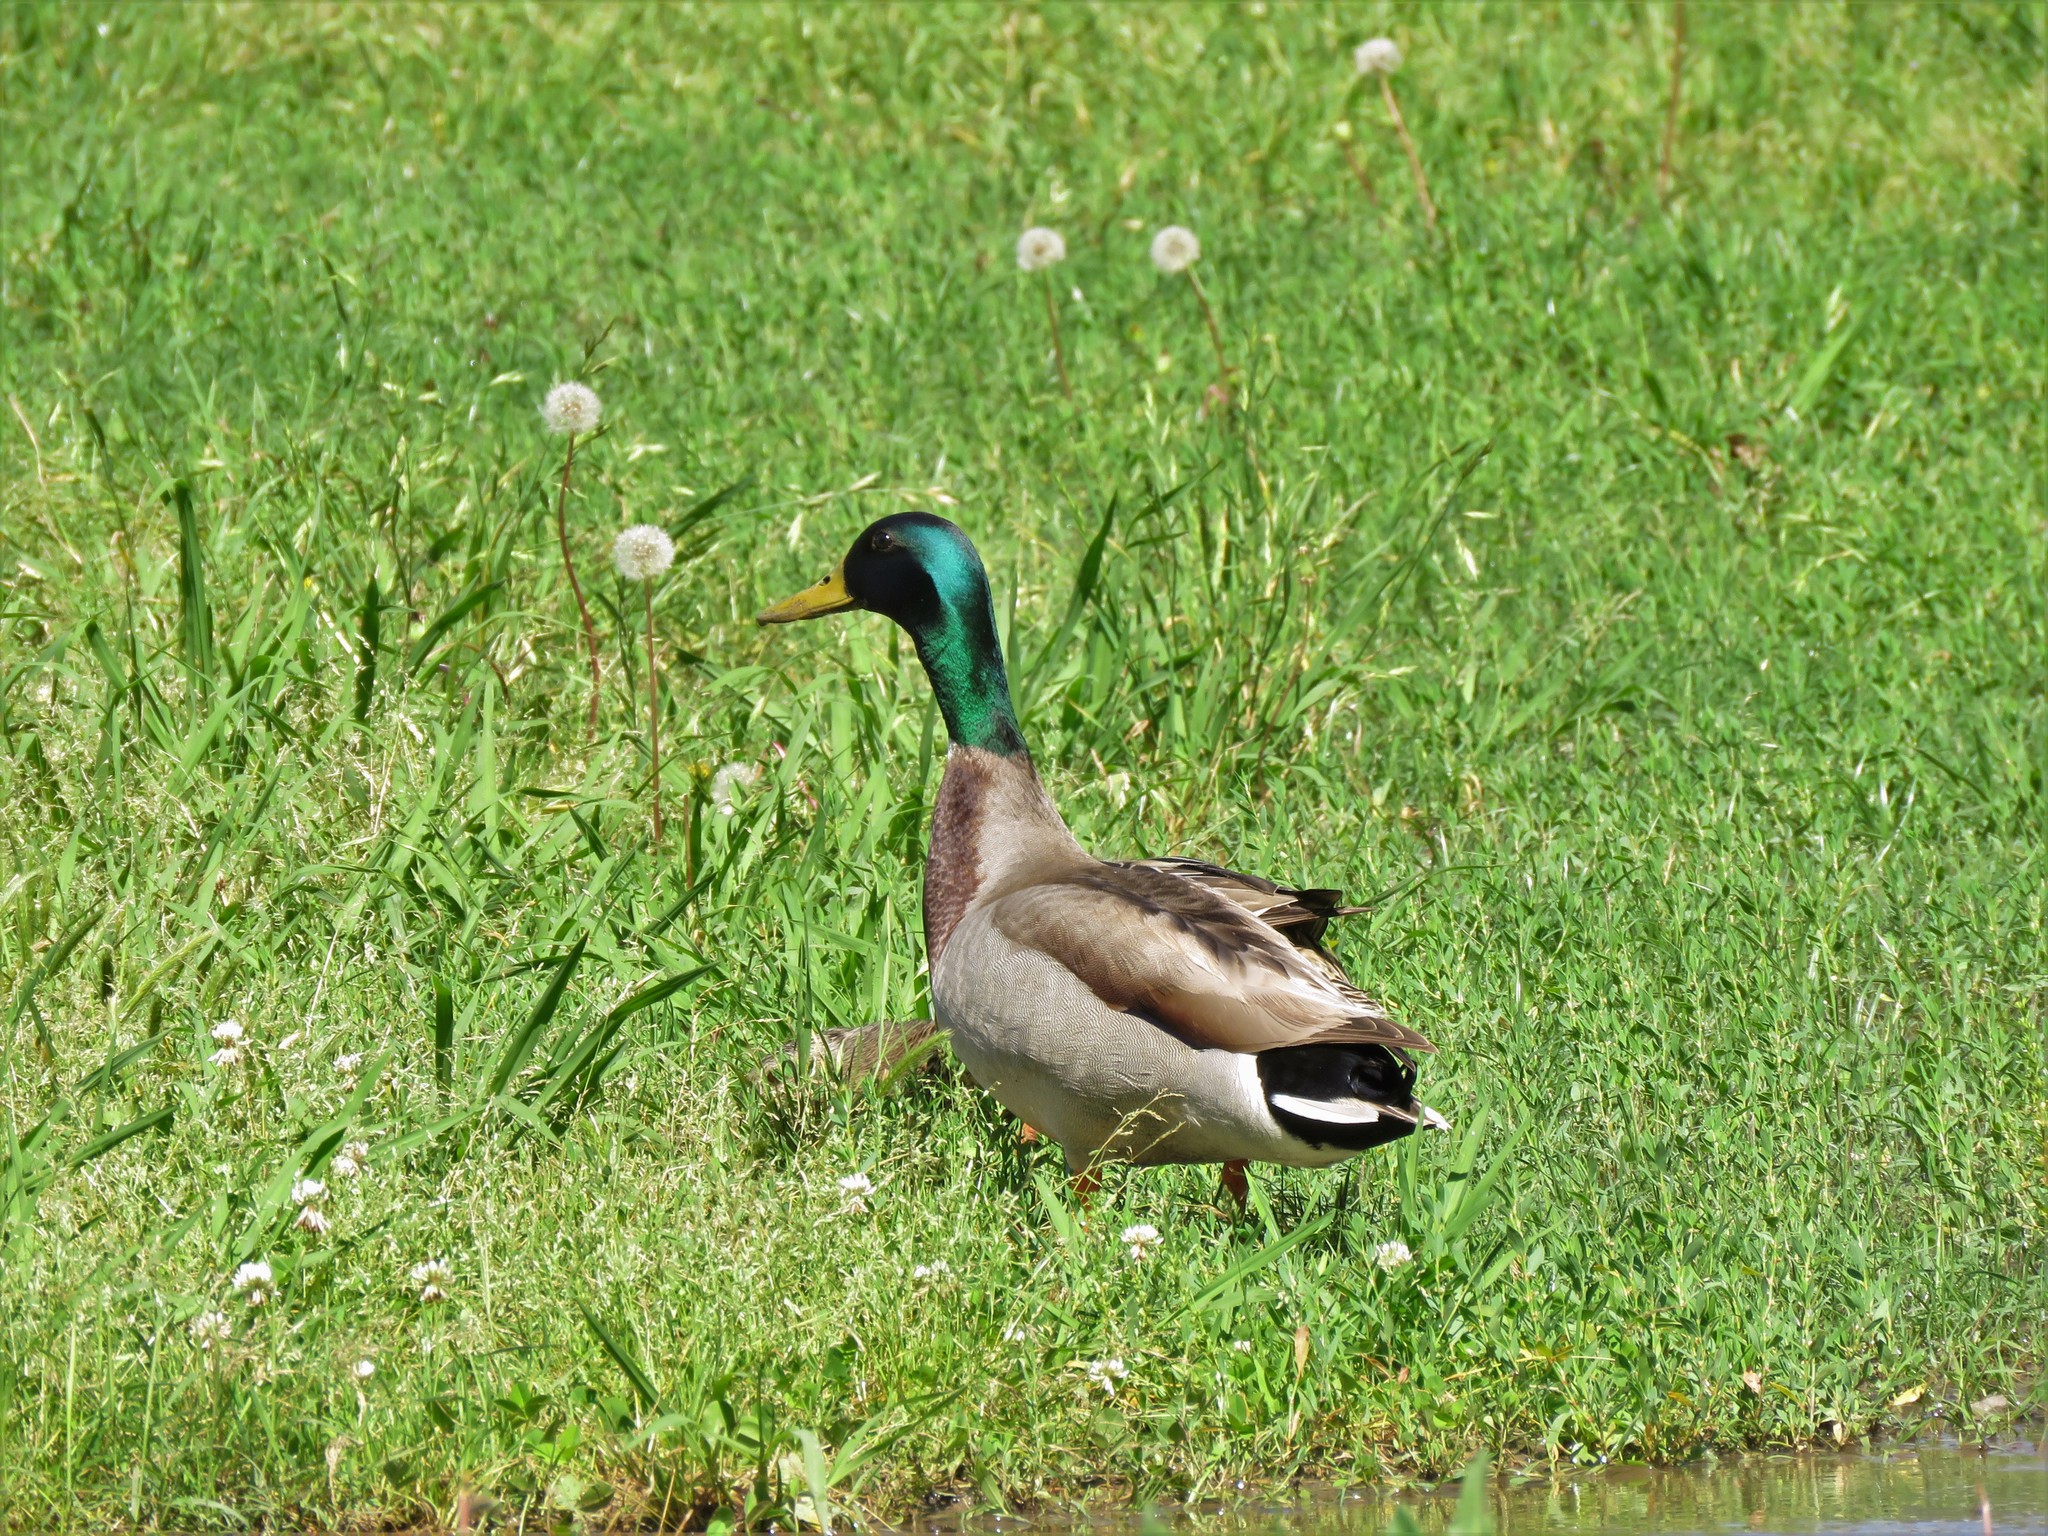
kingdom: Animalia
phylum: Chordata
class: Aves
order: Anseriformes
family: Anatidae
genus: Anas
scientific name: Anas platyrhynchos
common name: Mallard
